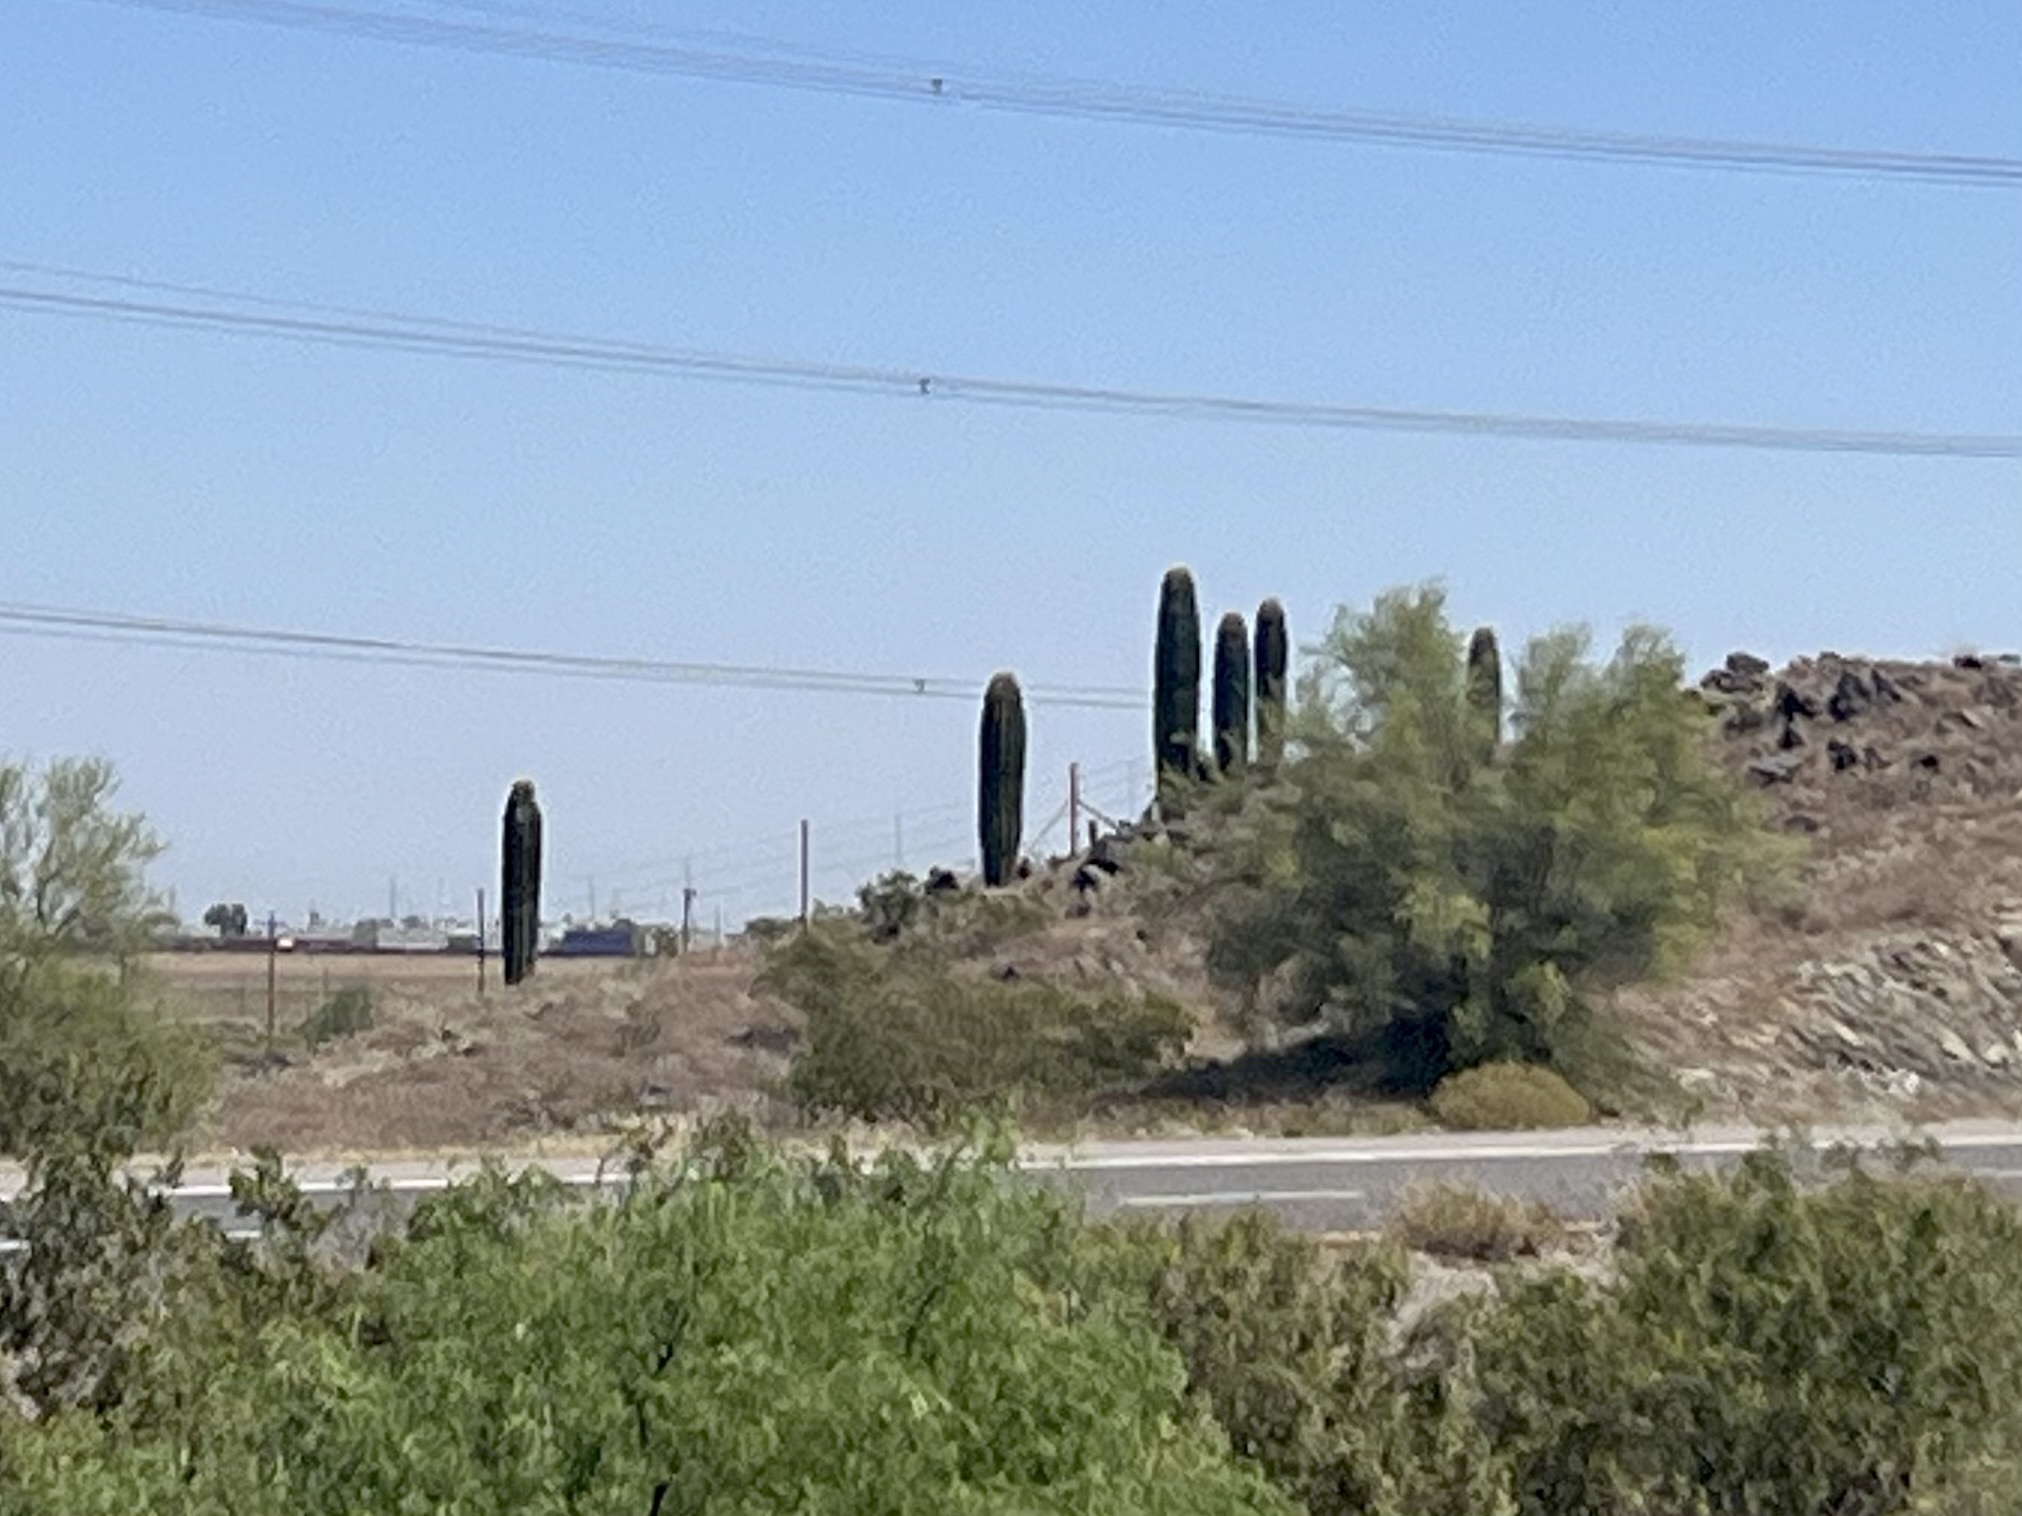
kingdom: Plantae
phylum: Tracheophyta
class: Magnoliopsida
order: Caryophyllales
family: Cactaceae
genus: Carnegiea
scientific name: Carnegiea gigantea
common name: Saguaro
